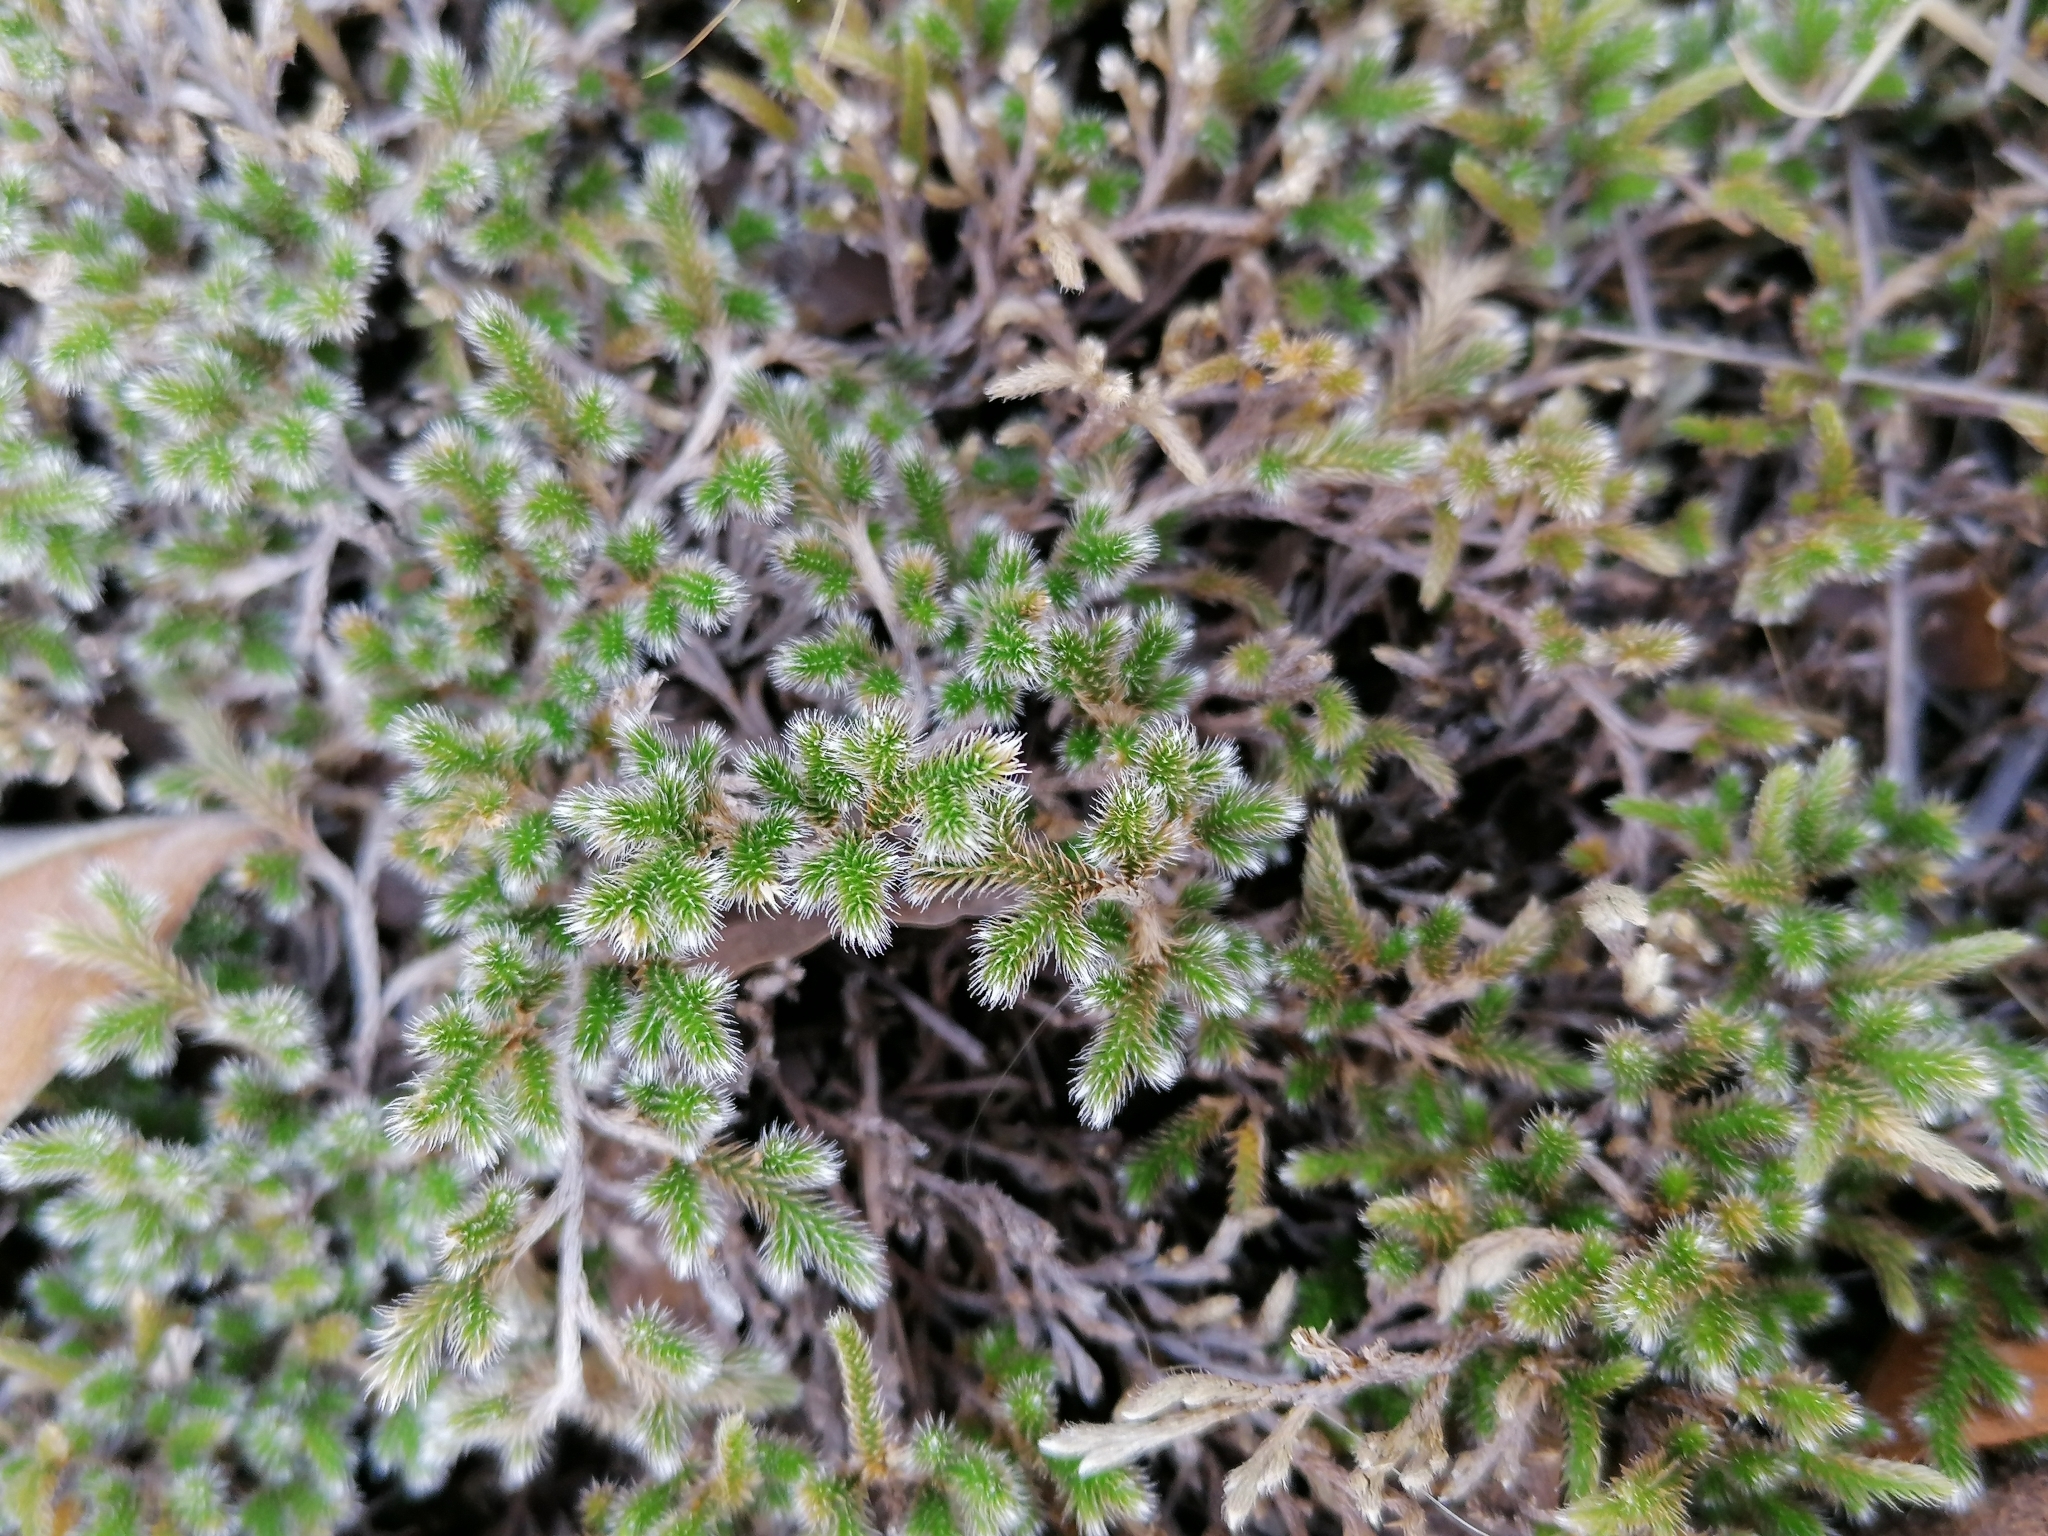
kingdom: Plantae
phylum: Tracheophyta
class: Lycopodiopsida
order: Selaginellales
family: Selaginellaceae
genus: Selaginella
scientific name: Selaginella dregei
